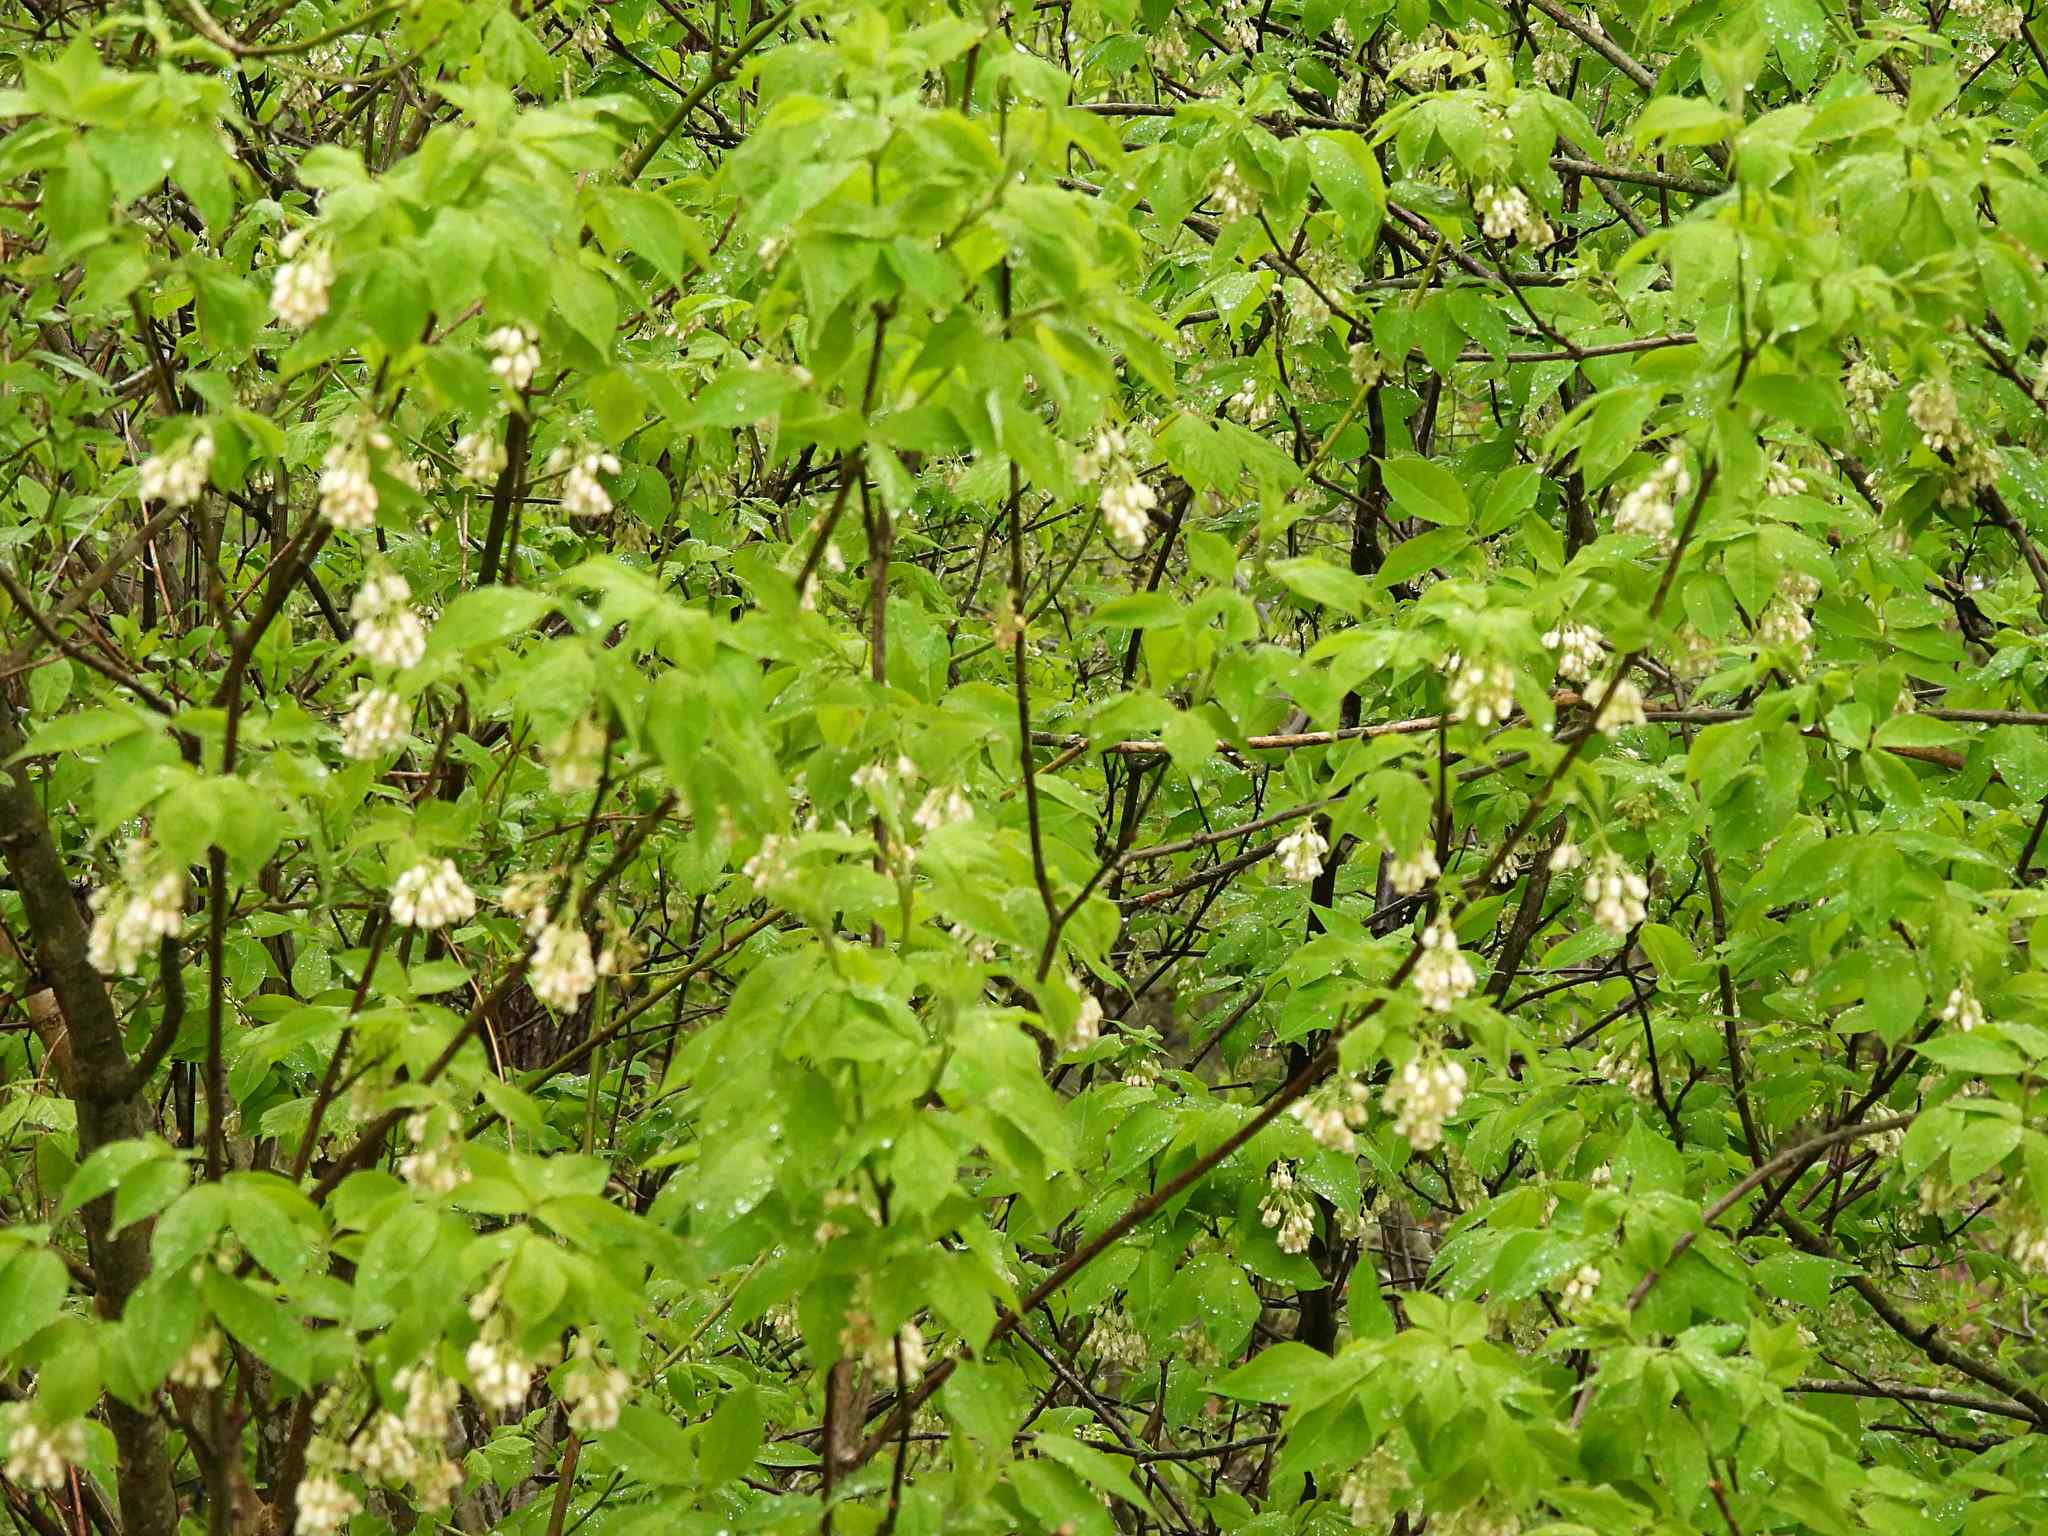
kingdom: Plantae
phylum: Tracheophyta
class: Magnoliopsida
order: Crossosomatales
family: Staphyleaceae
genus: Staphylea
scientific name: Staphylea trifolia
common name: American bladdernut
